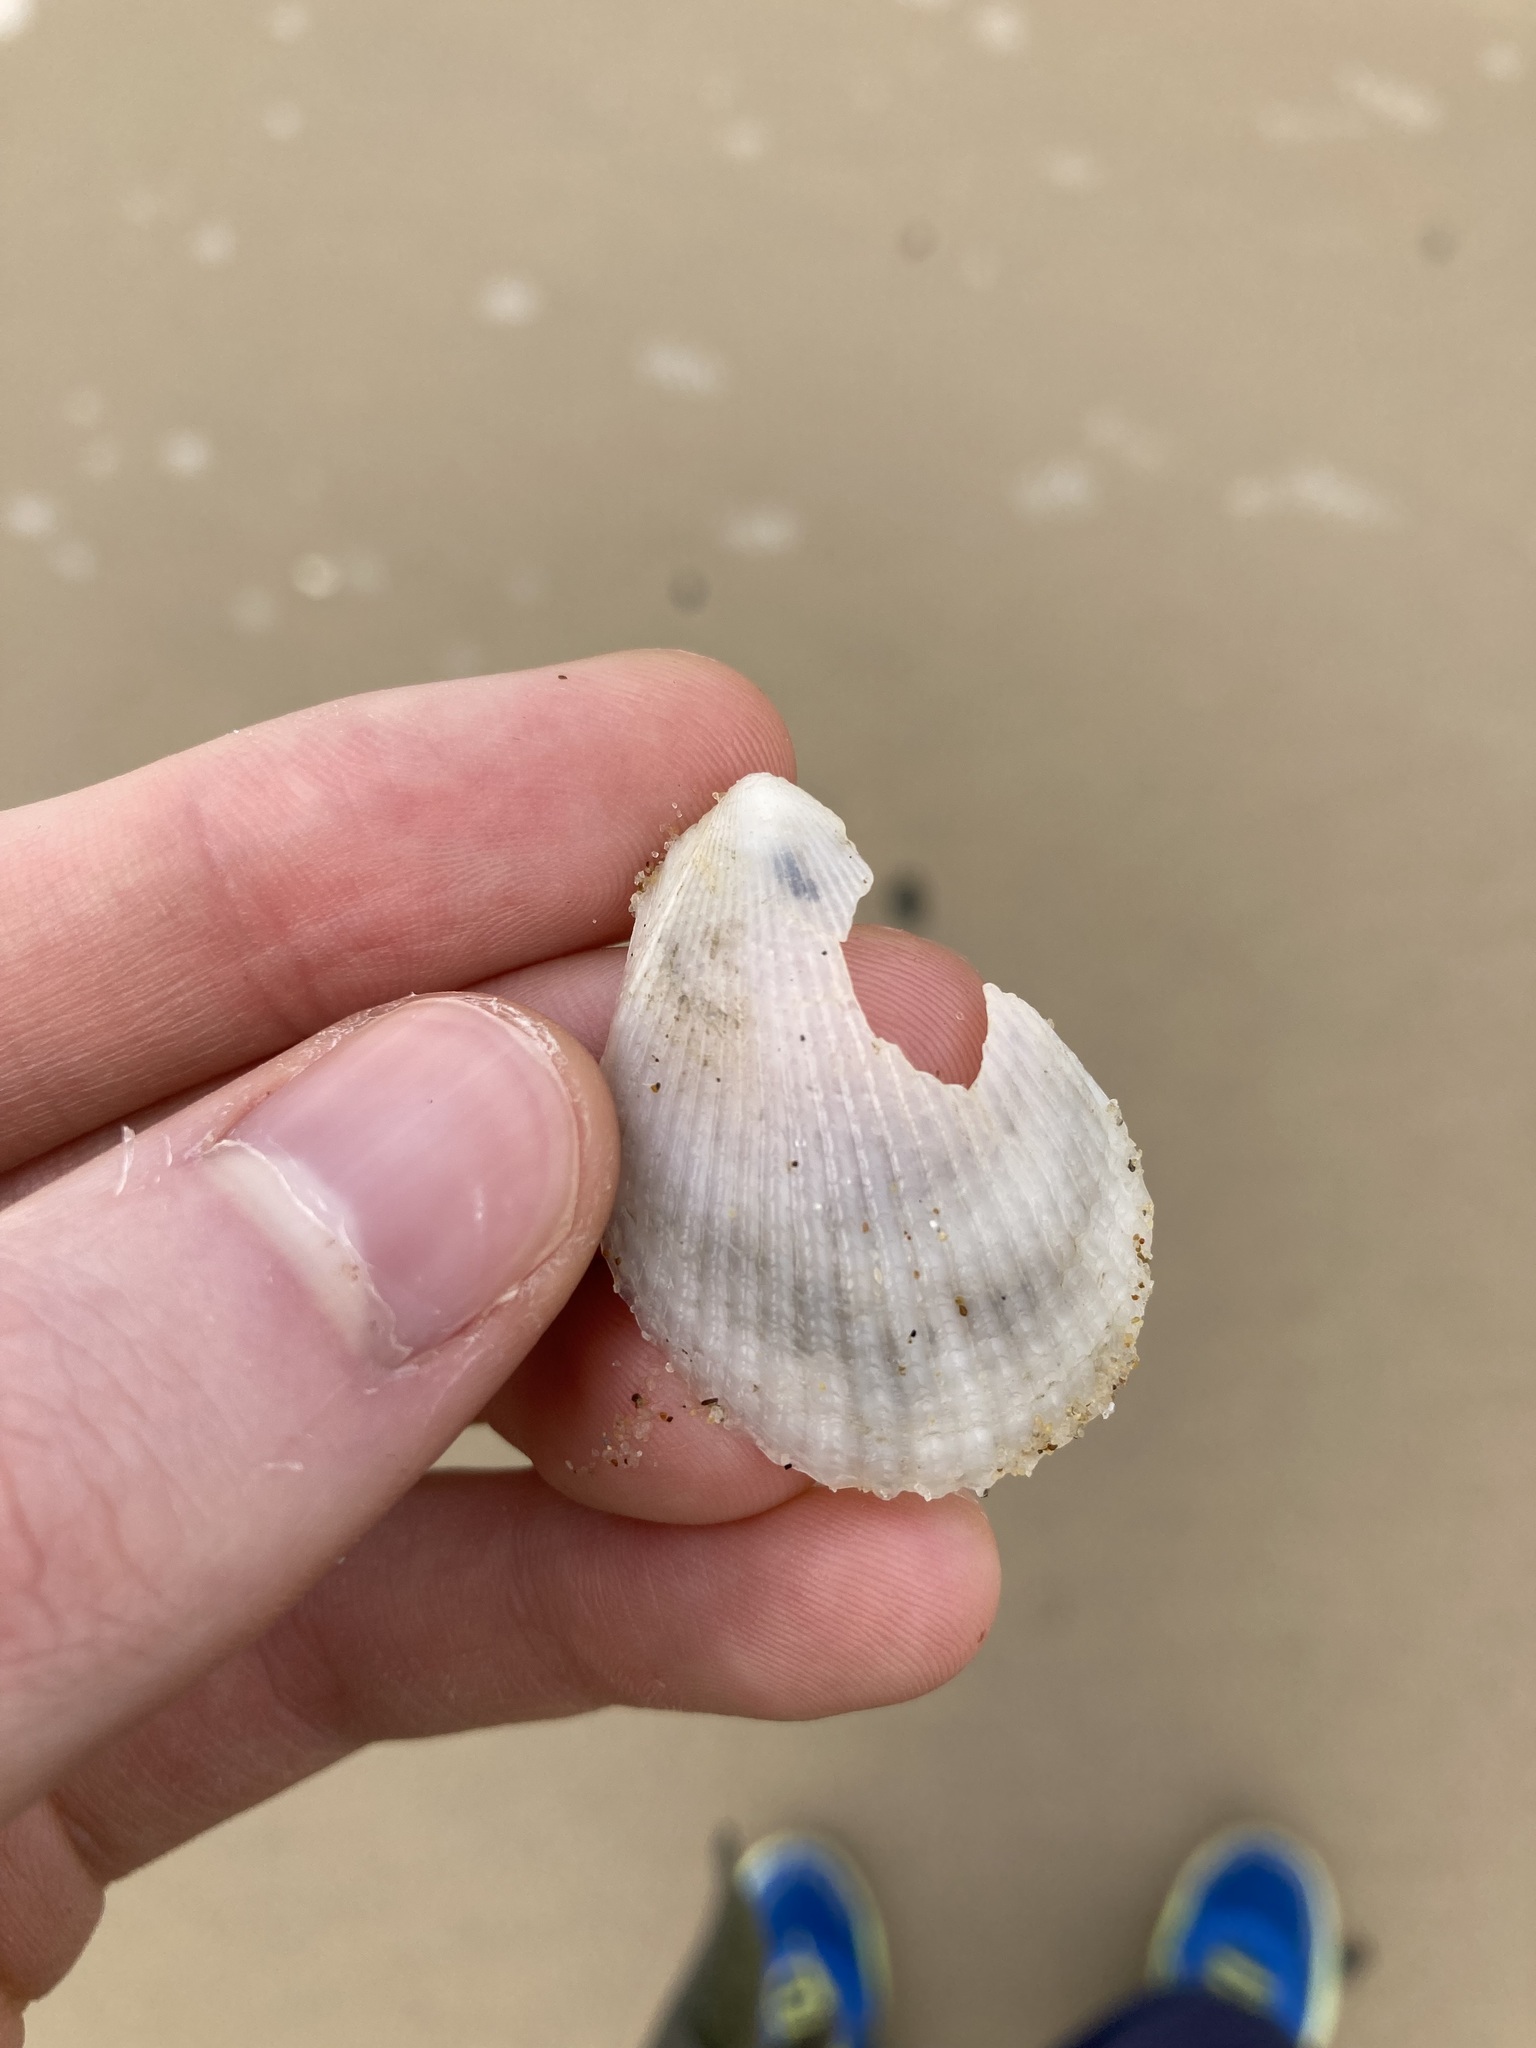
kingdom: Animalia
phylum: Mollusca
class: Bivalvia
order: Limida
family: Limidae
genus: Lima
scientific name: Lima nimbifer
